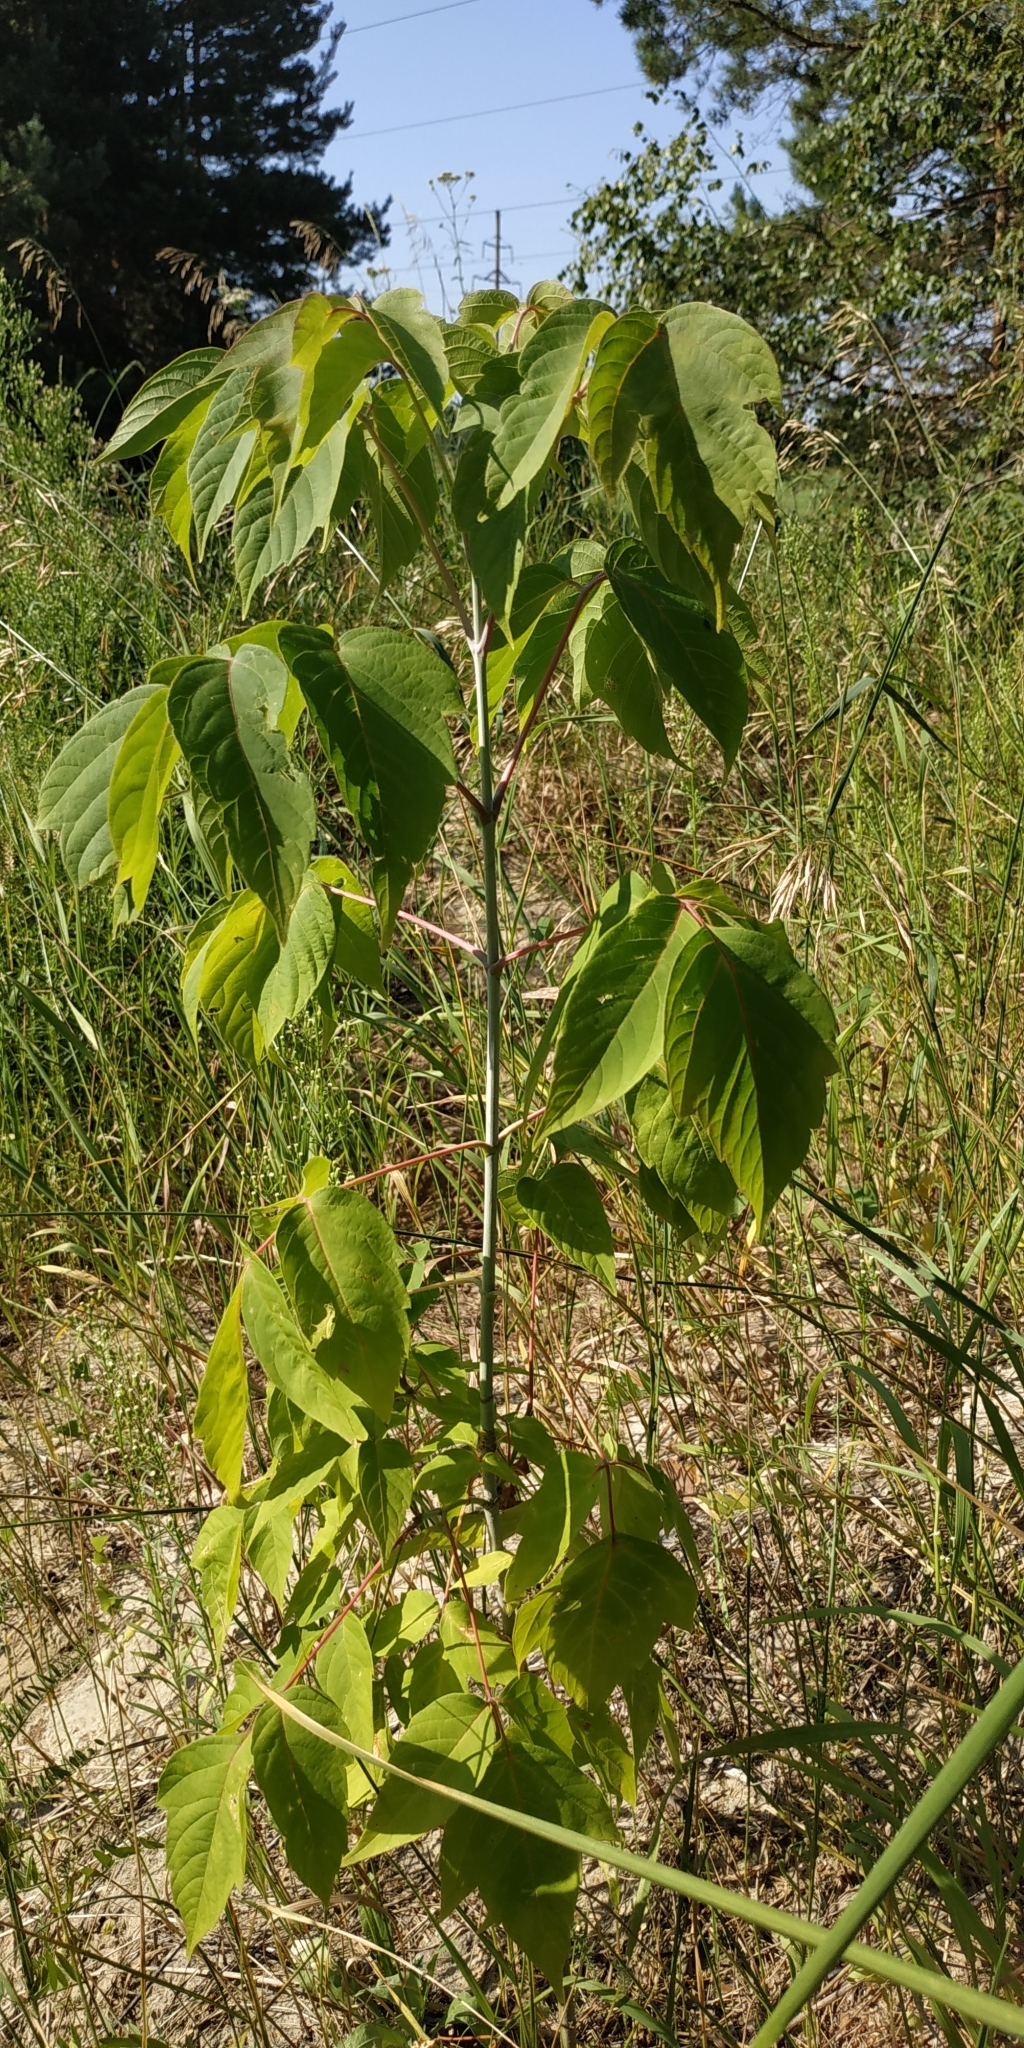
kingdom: Plantae
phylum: Tracheophyta
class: Magnoliopsida
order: Sapindales
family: Sapindaceae
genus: Acer
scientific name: Acer negundo
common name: Ashleaf maple
